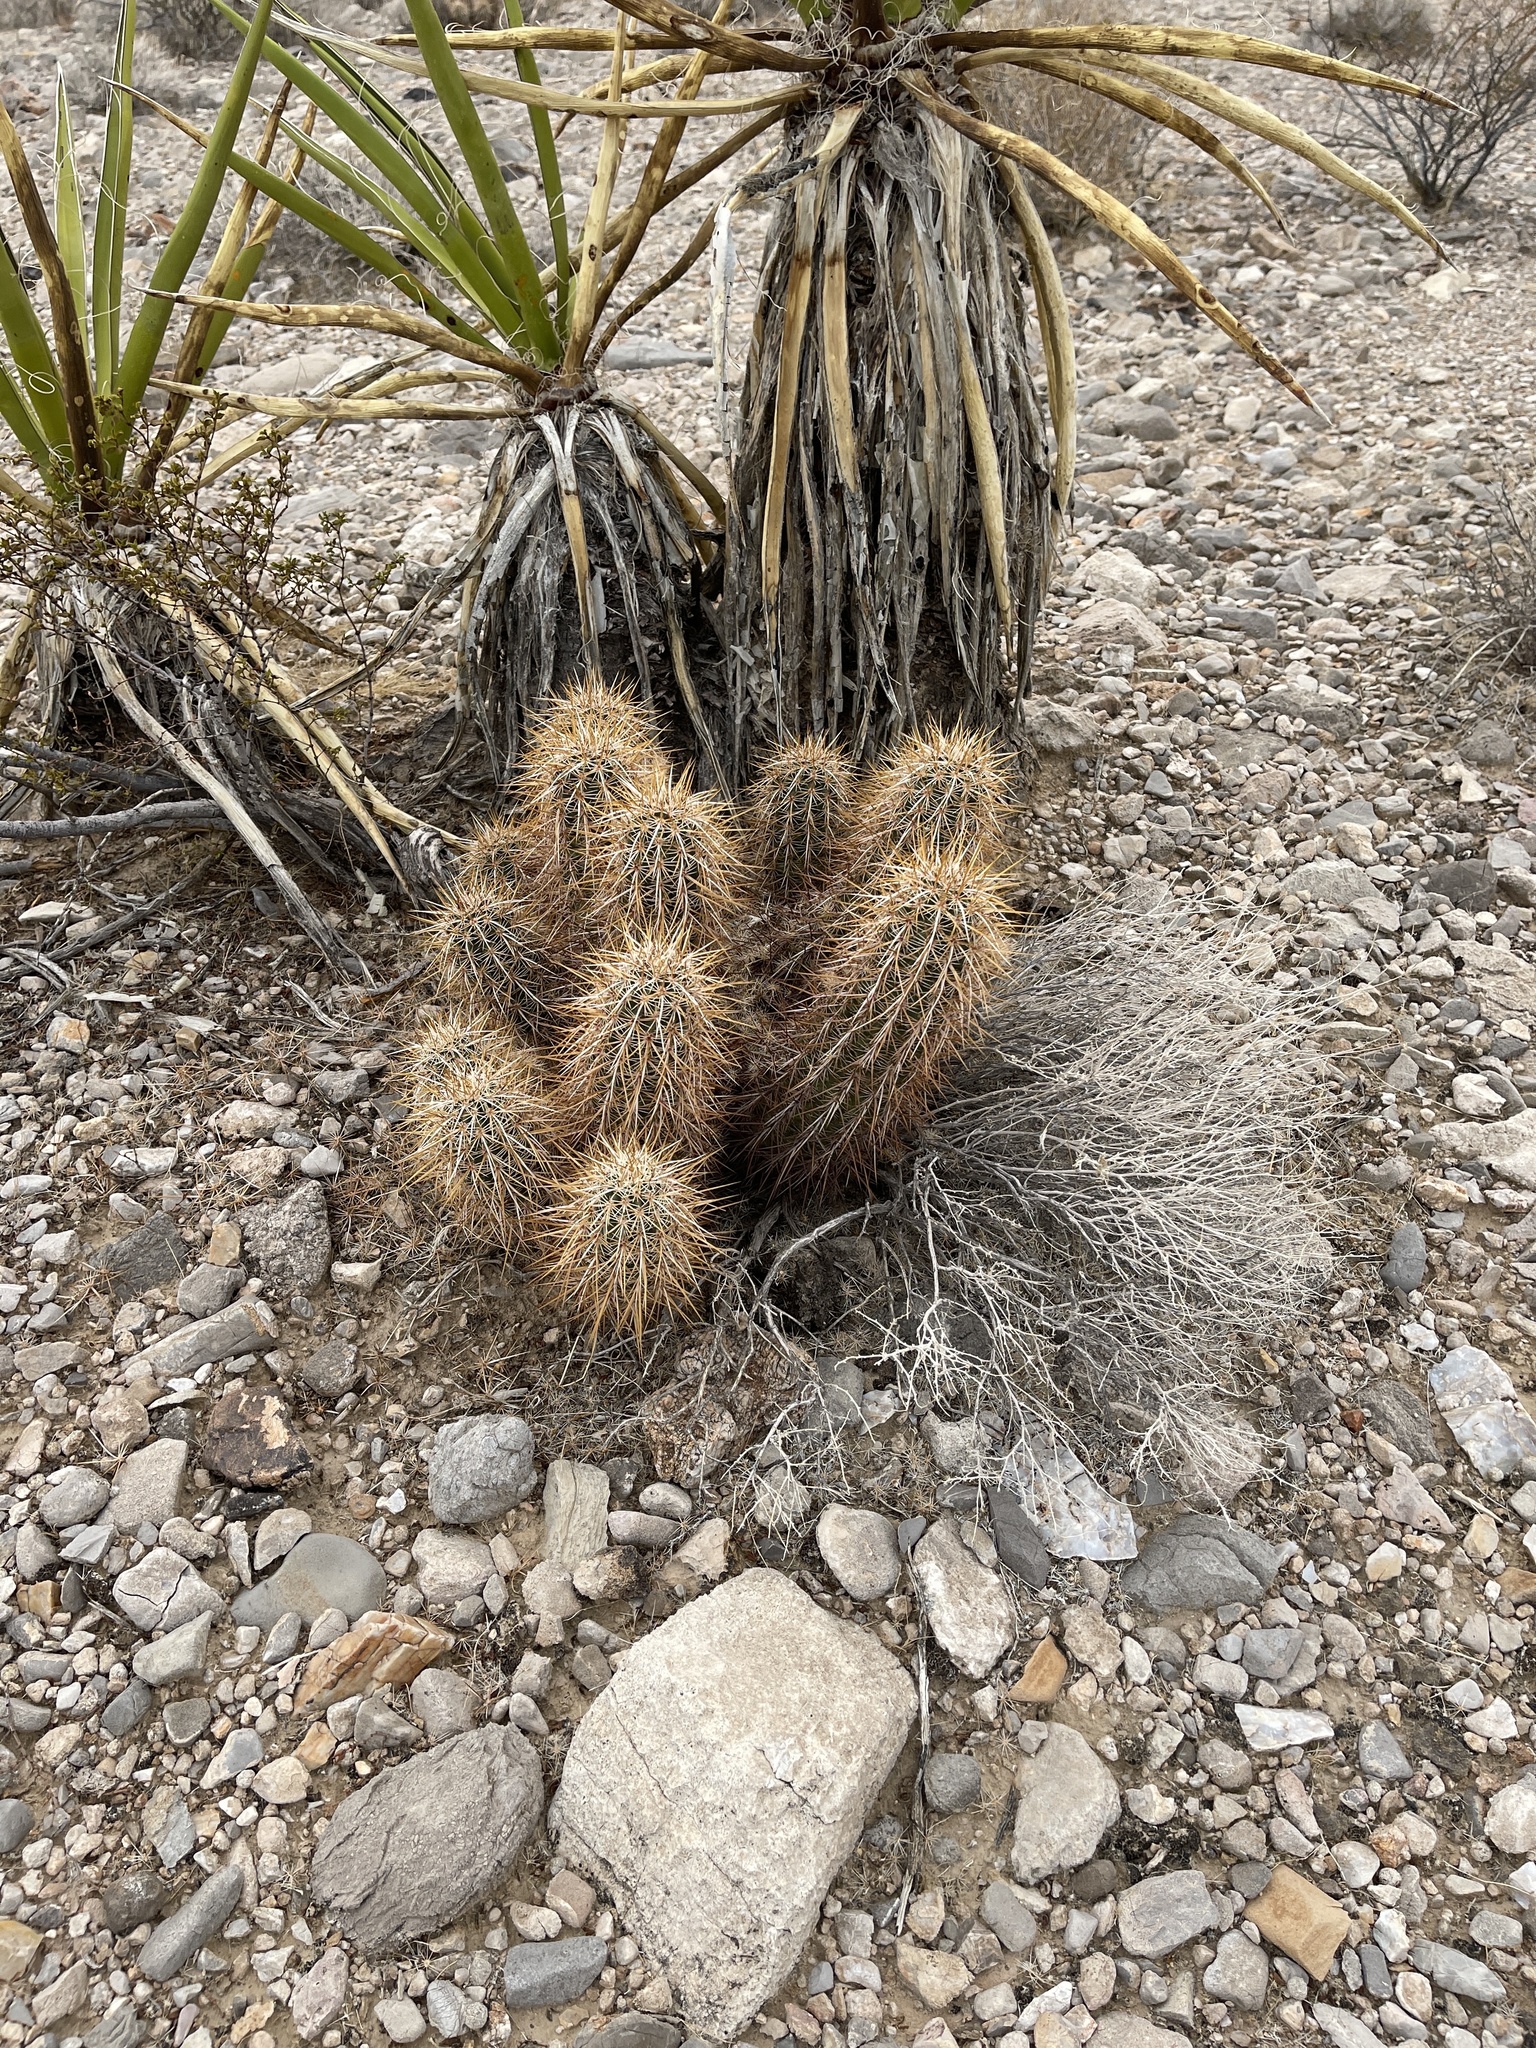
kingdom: Plantae
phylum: Tracheophyta
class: Magnoliopsida
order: Caryophyllales
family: Cactaceae
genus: Echinocereus
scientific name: Echinocereus engelmannii
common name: Engelmann's hedgehog cactus
